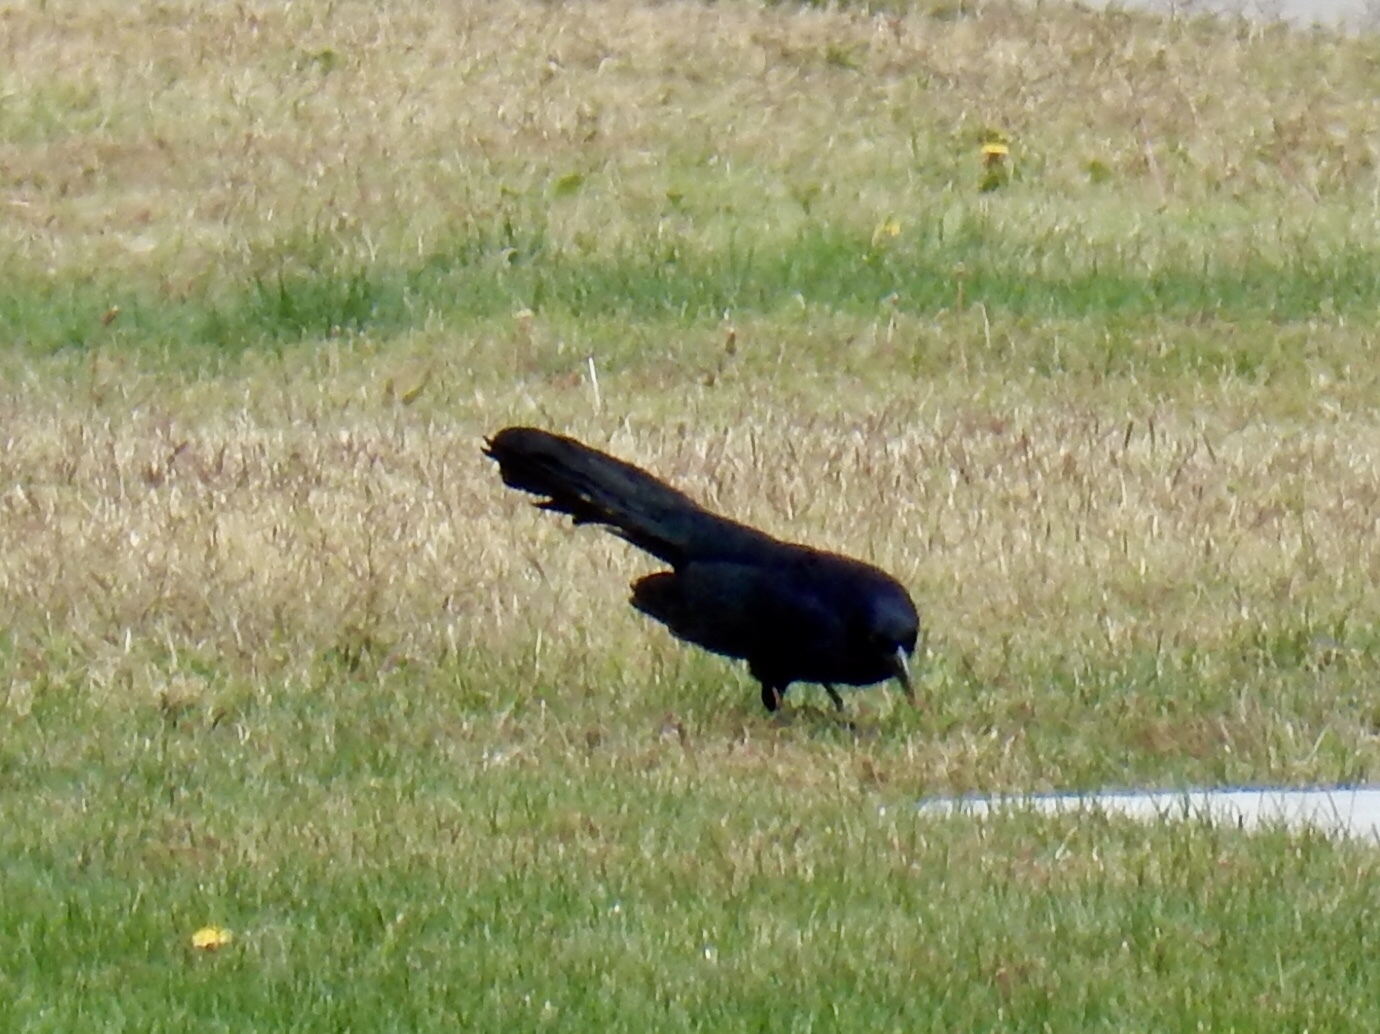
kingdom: Animalia
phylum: Chordata
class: Aves
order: Passeriformes
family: Icteridae
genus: Quiscalus
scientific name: Quiscalus mexicanus
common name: Great-tailed grackle
